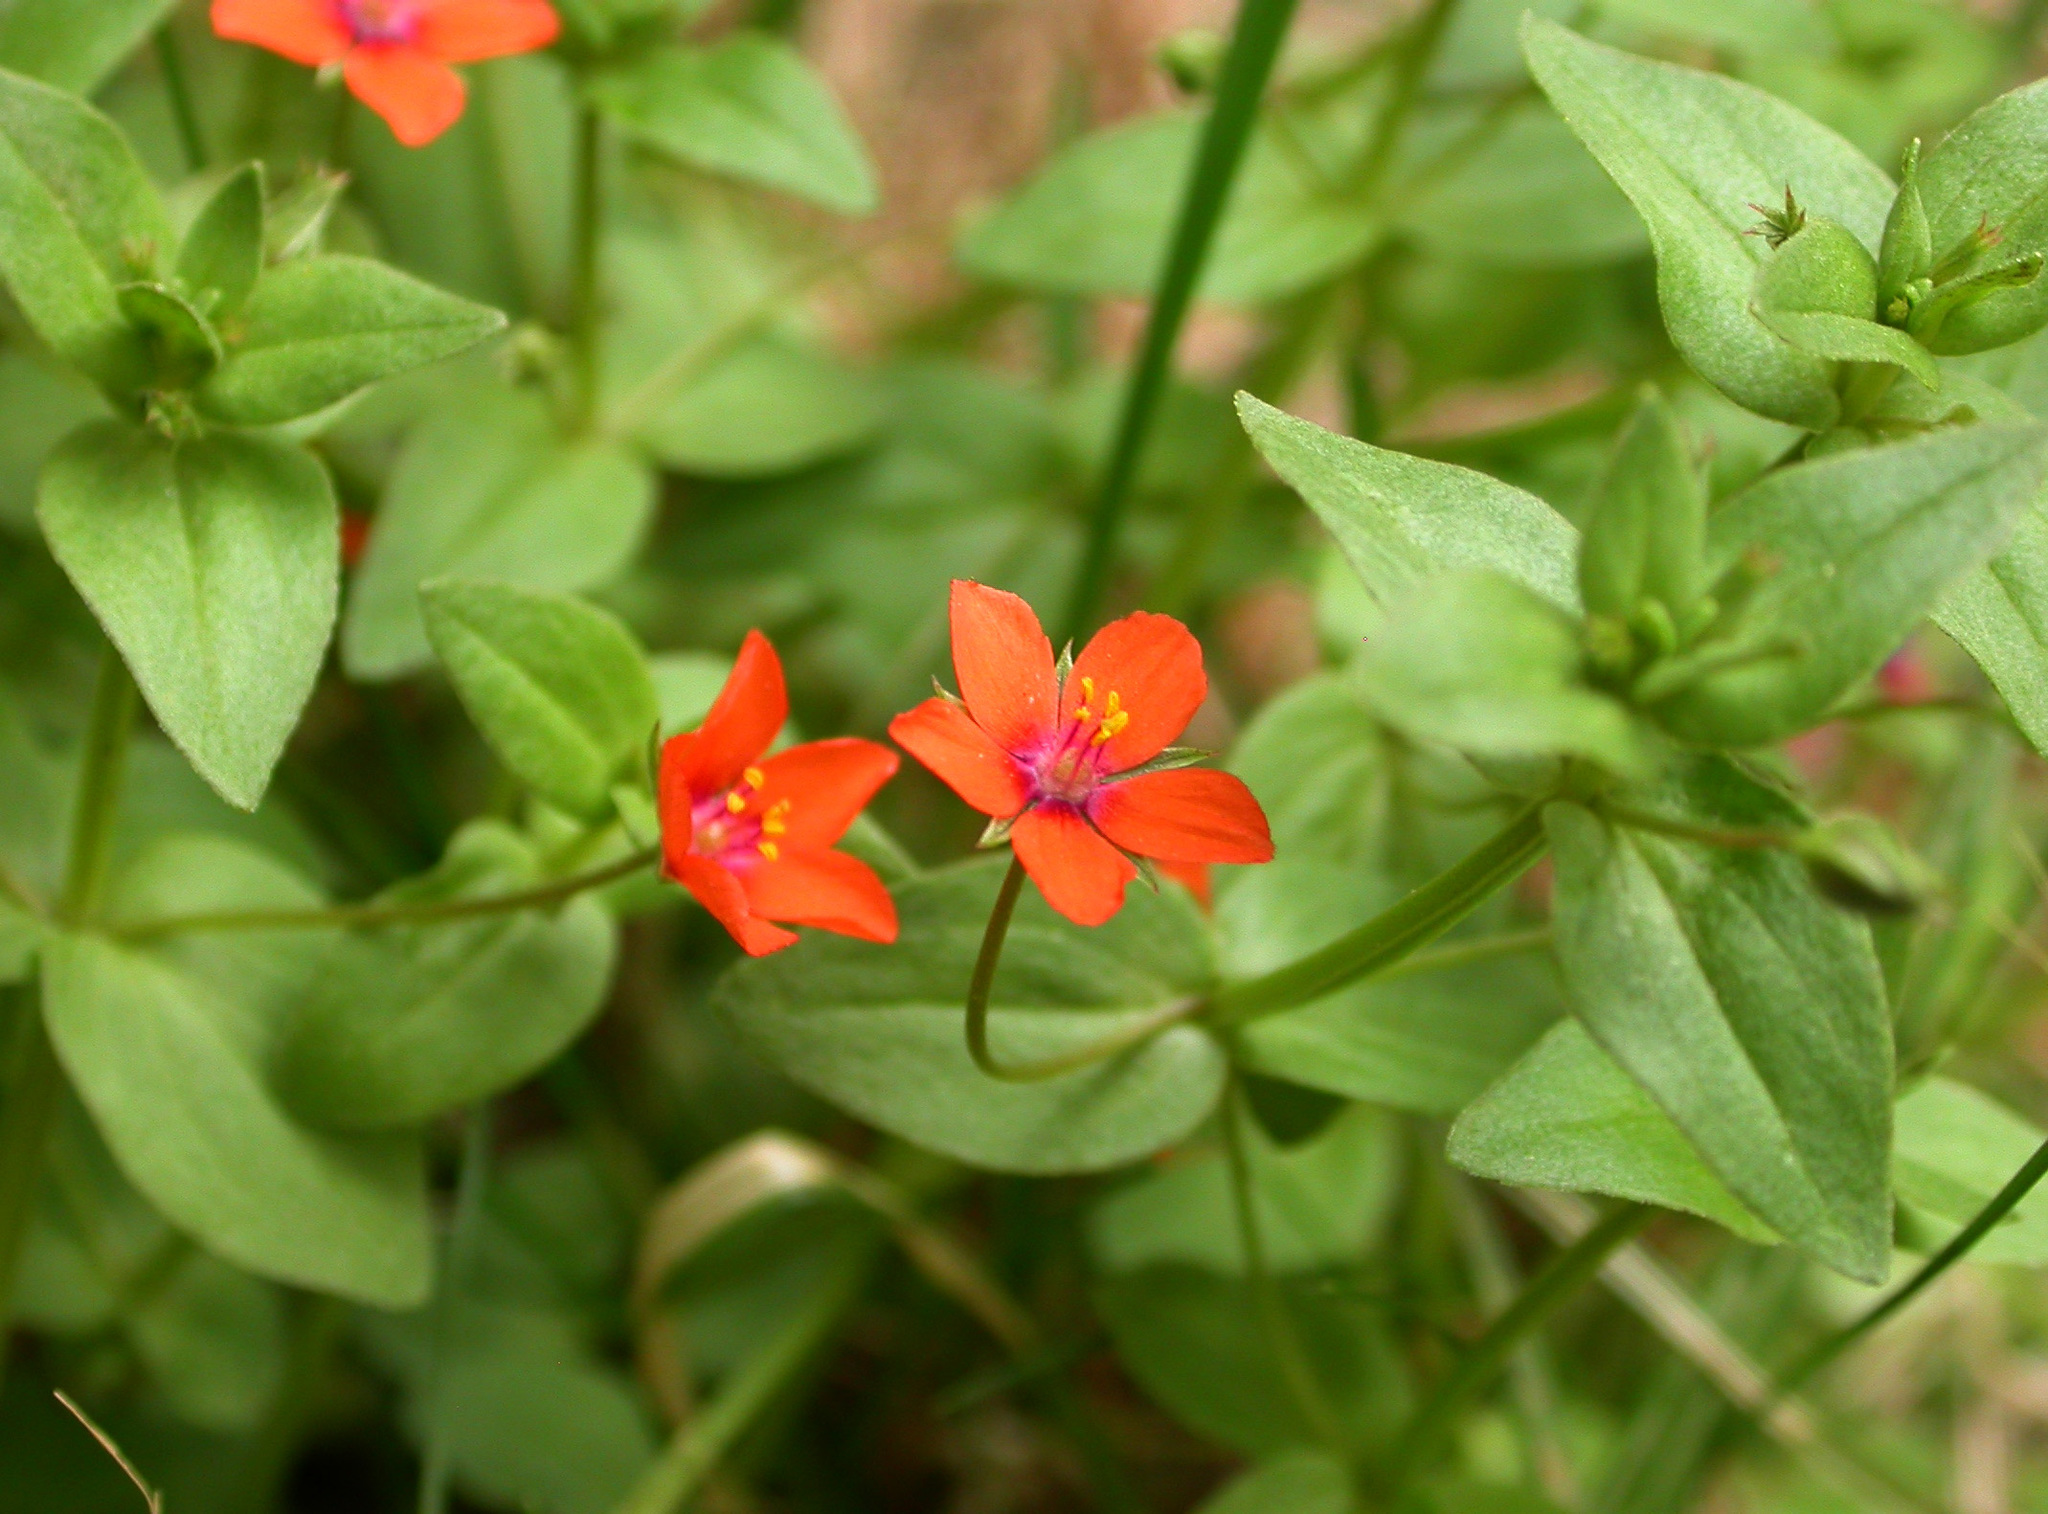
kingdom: Plantae
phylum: Tracheophyta
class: Magnoliopsida
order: Ericales
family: Primulaceae
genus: Lysimachia
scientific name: Lysimachia arvensis
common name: Scarlet pimpernel
